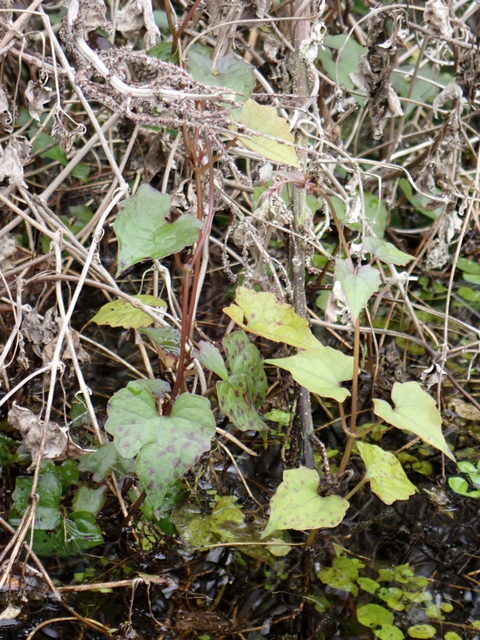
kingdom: Plantae
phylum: Tracheophyta
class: Magnoliopsida
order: Asterales
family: Asteraceae
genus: Mikania
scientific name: Mikania scandens
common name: Climbing hempvine
